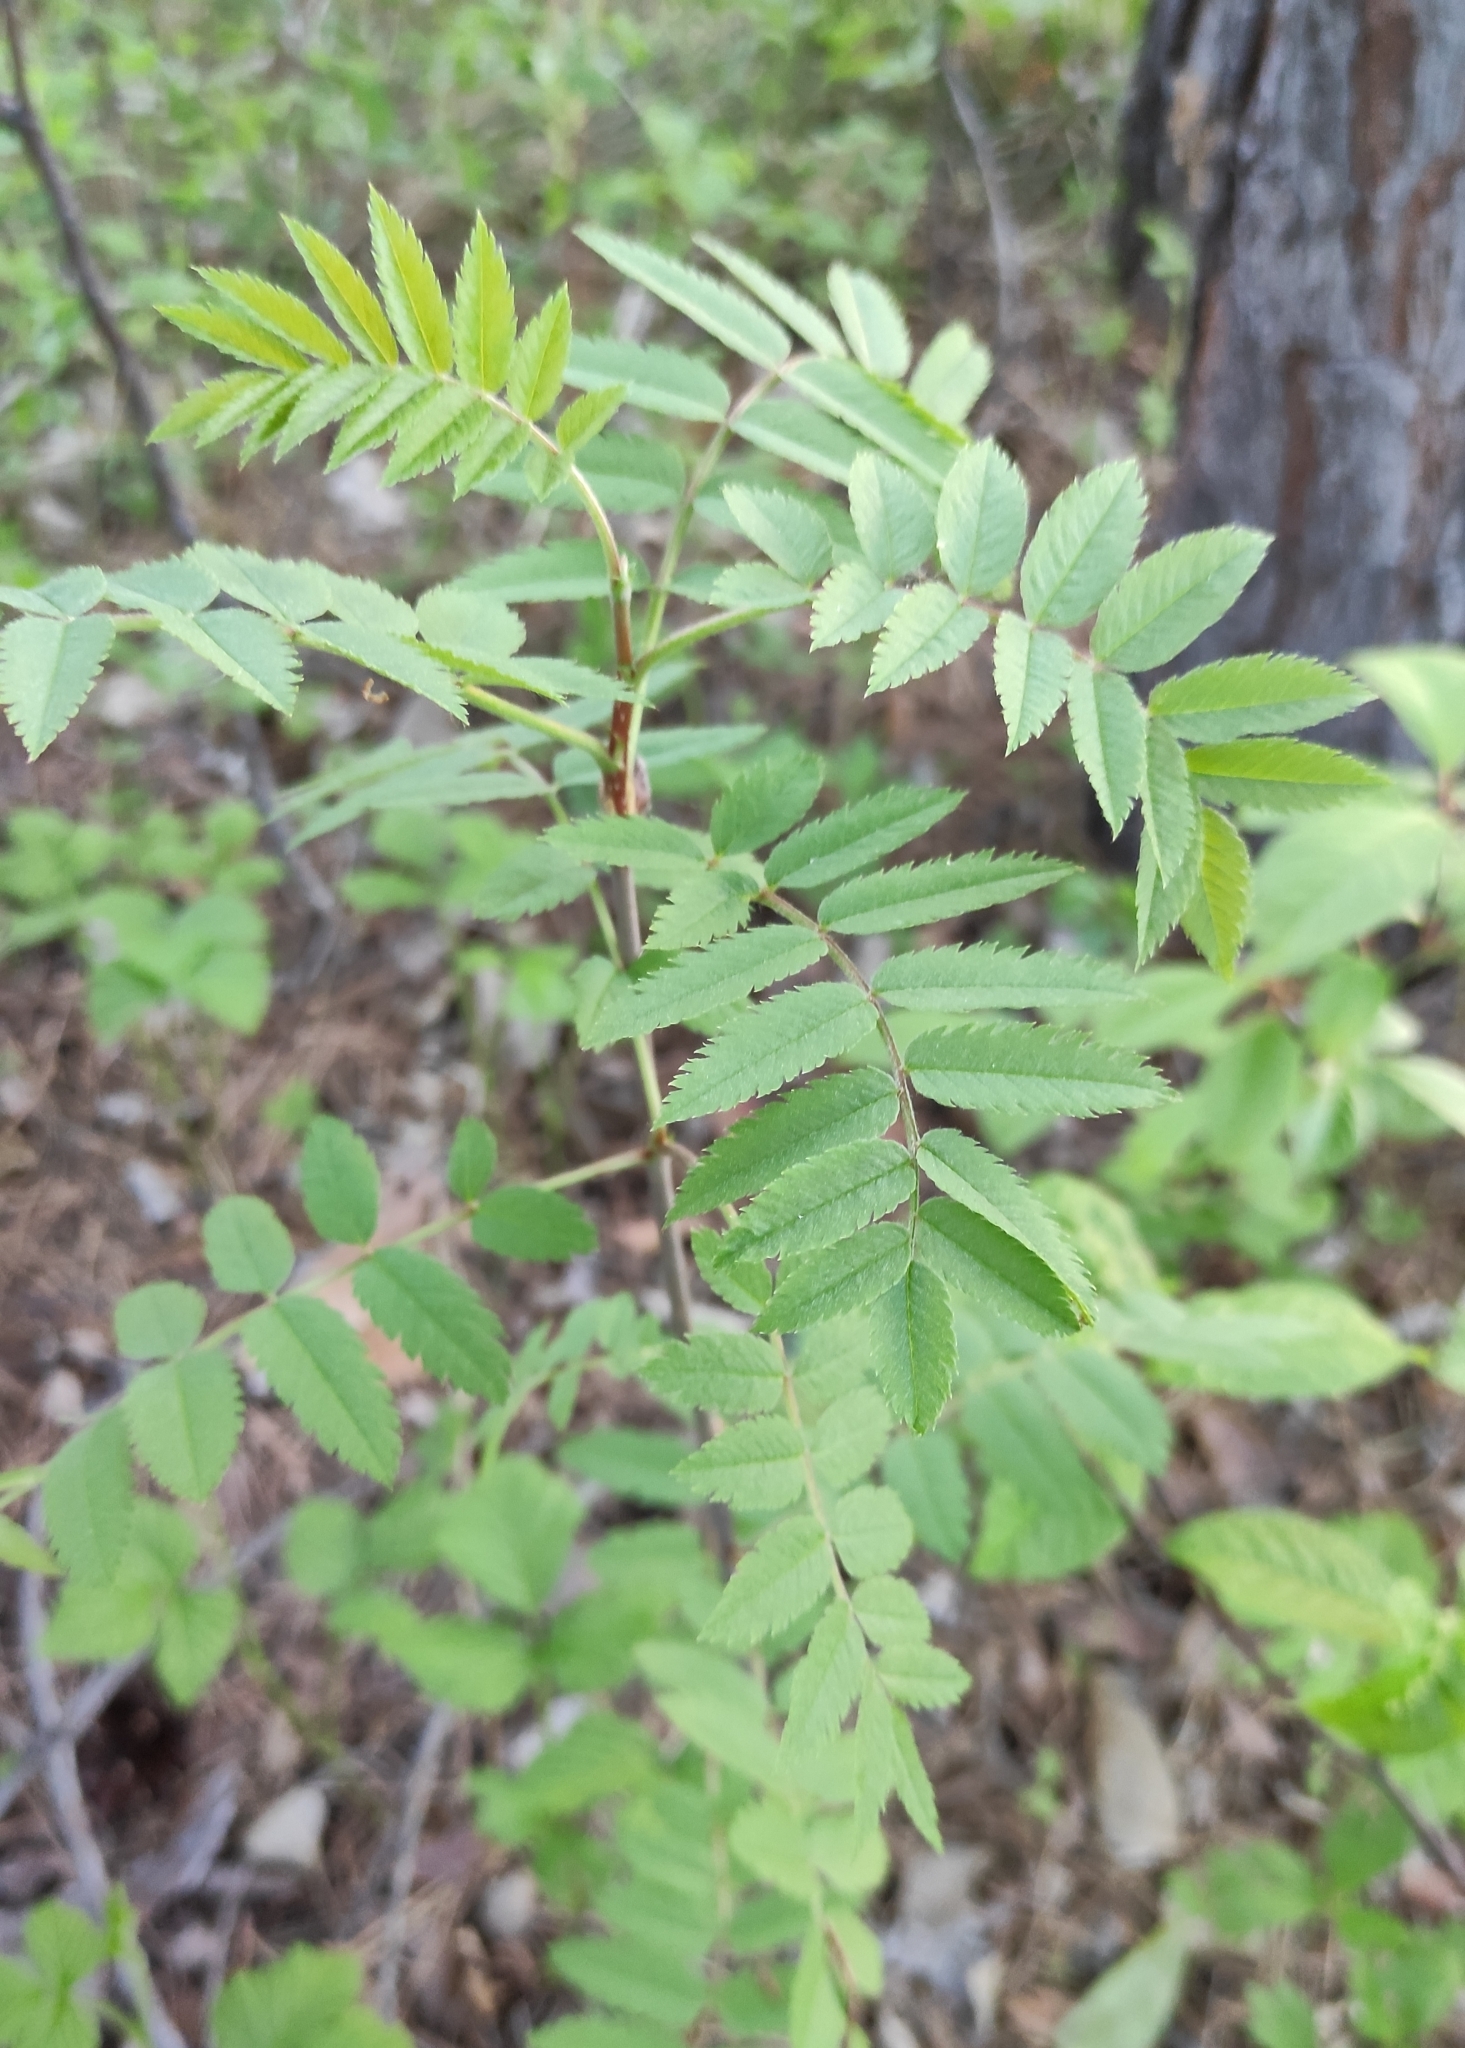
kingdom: Plantae
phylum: Tracheophyta
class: Magnoliopsida
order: Rosales
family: Rosaceae
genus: Sorbus
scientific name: Sorbus aucuparia
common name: Rowan
